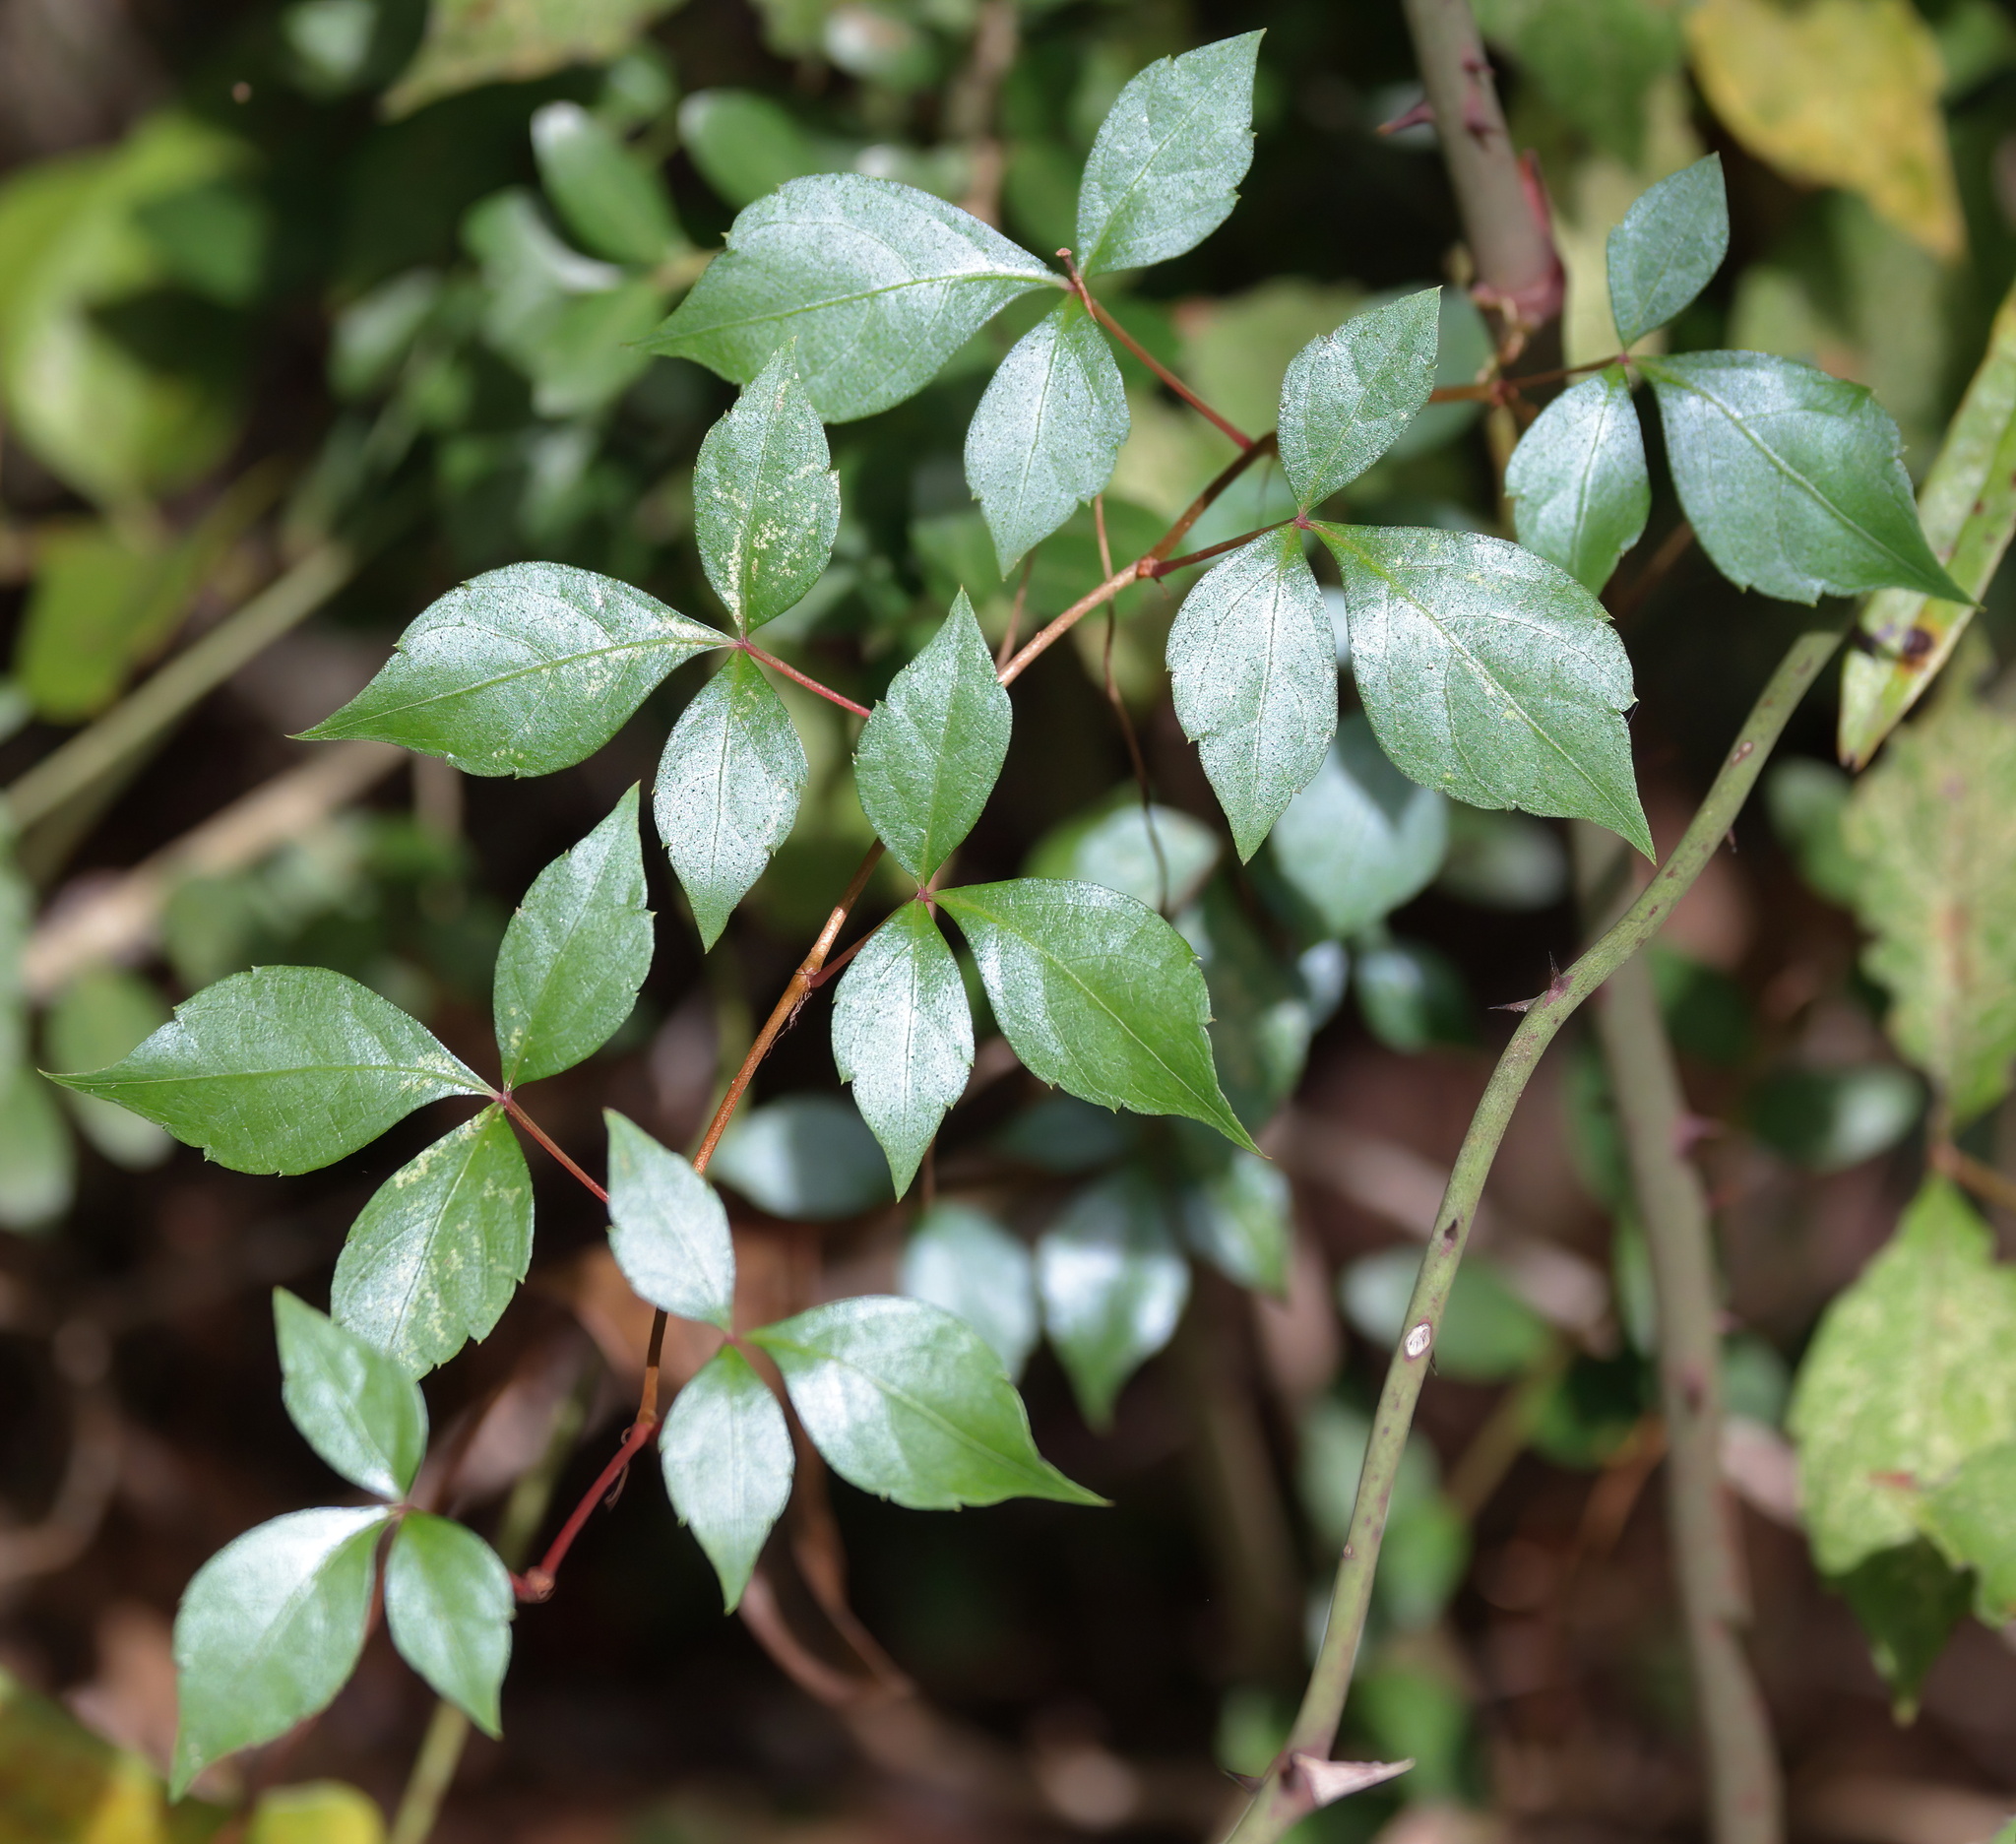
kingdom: Plantae
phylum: Tracheophyta
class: Magnoliopsida
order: Sapindales
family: Anacardiaceae
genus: Toxicodendron
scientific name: Toxicodendron radicans
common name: Poison ivy
